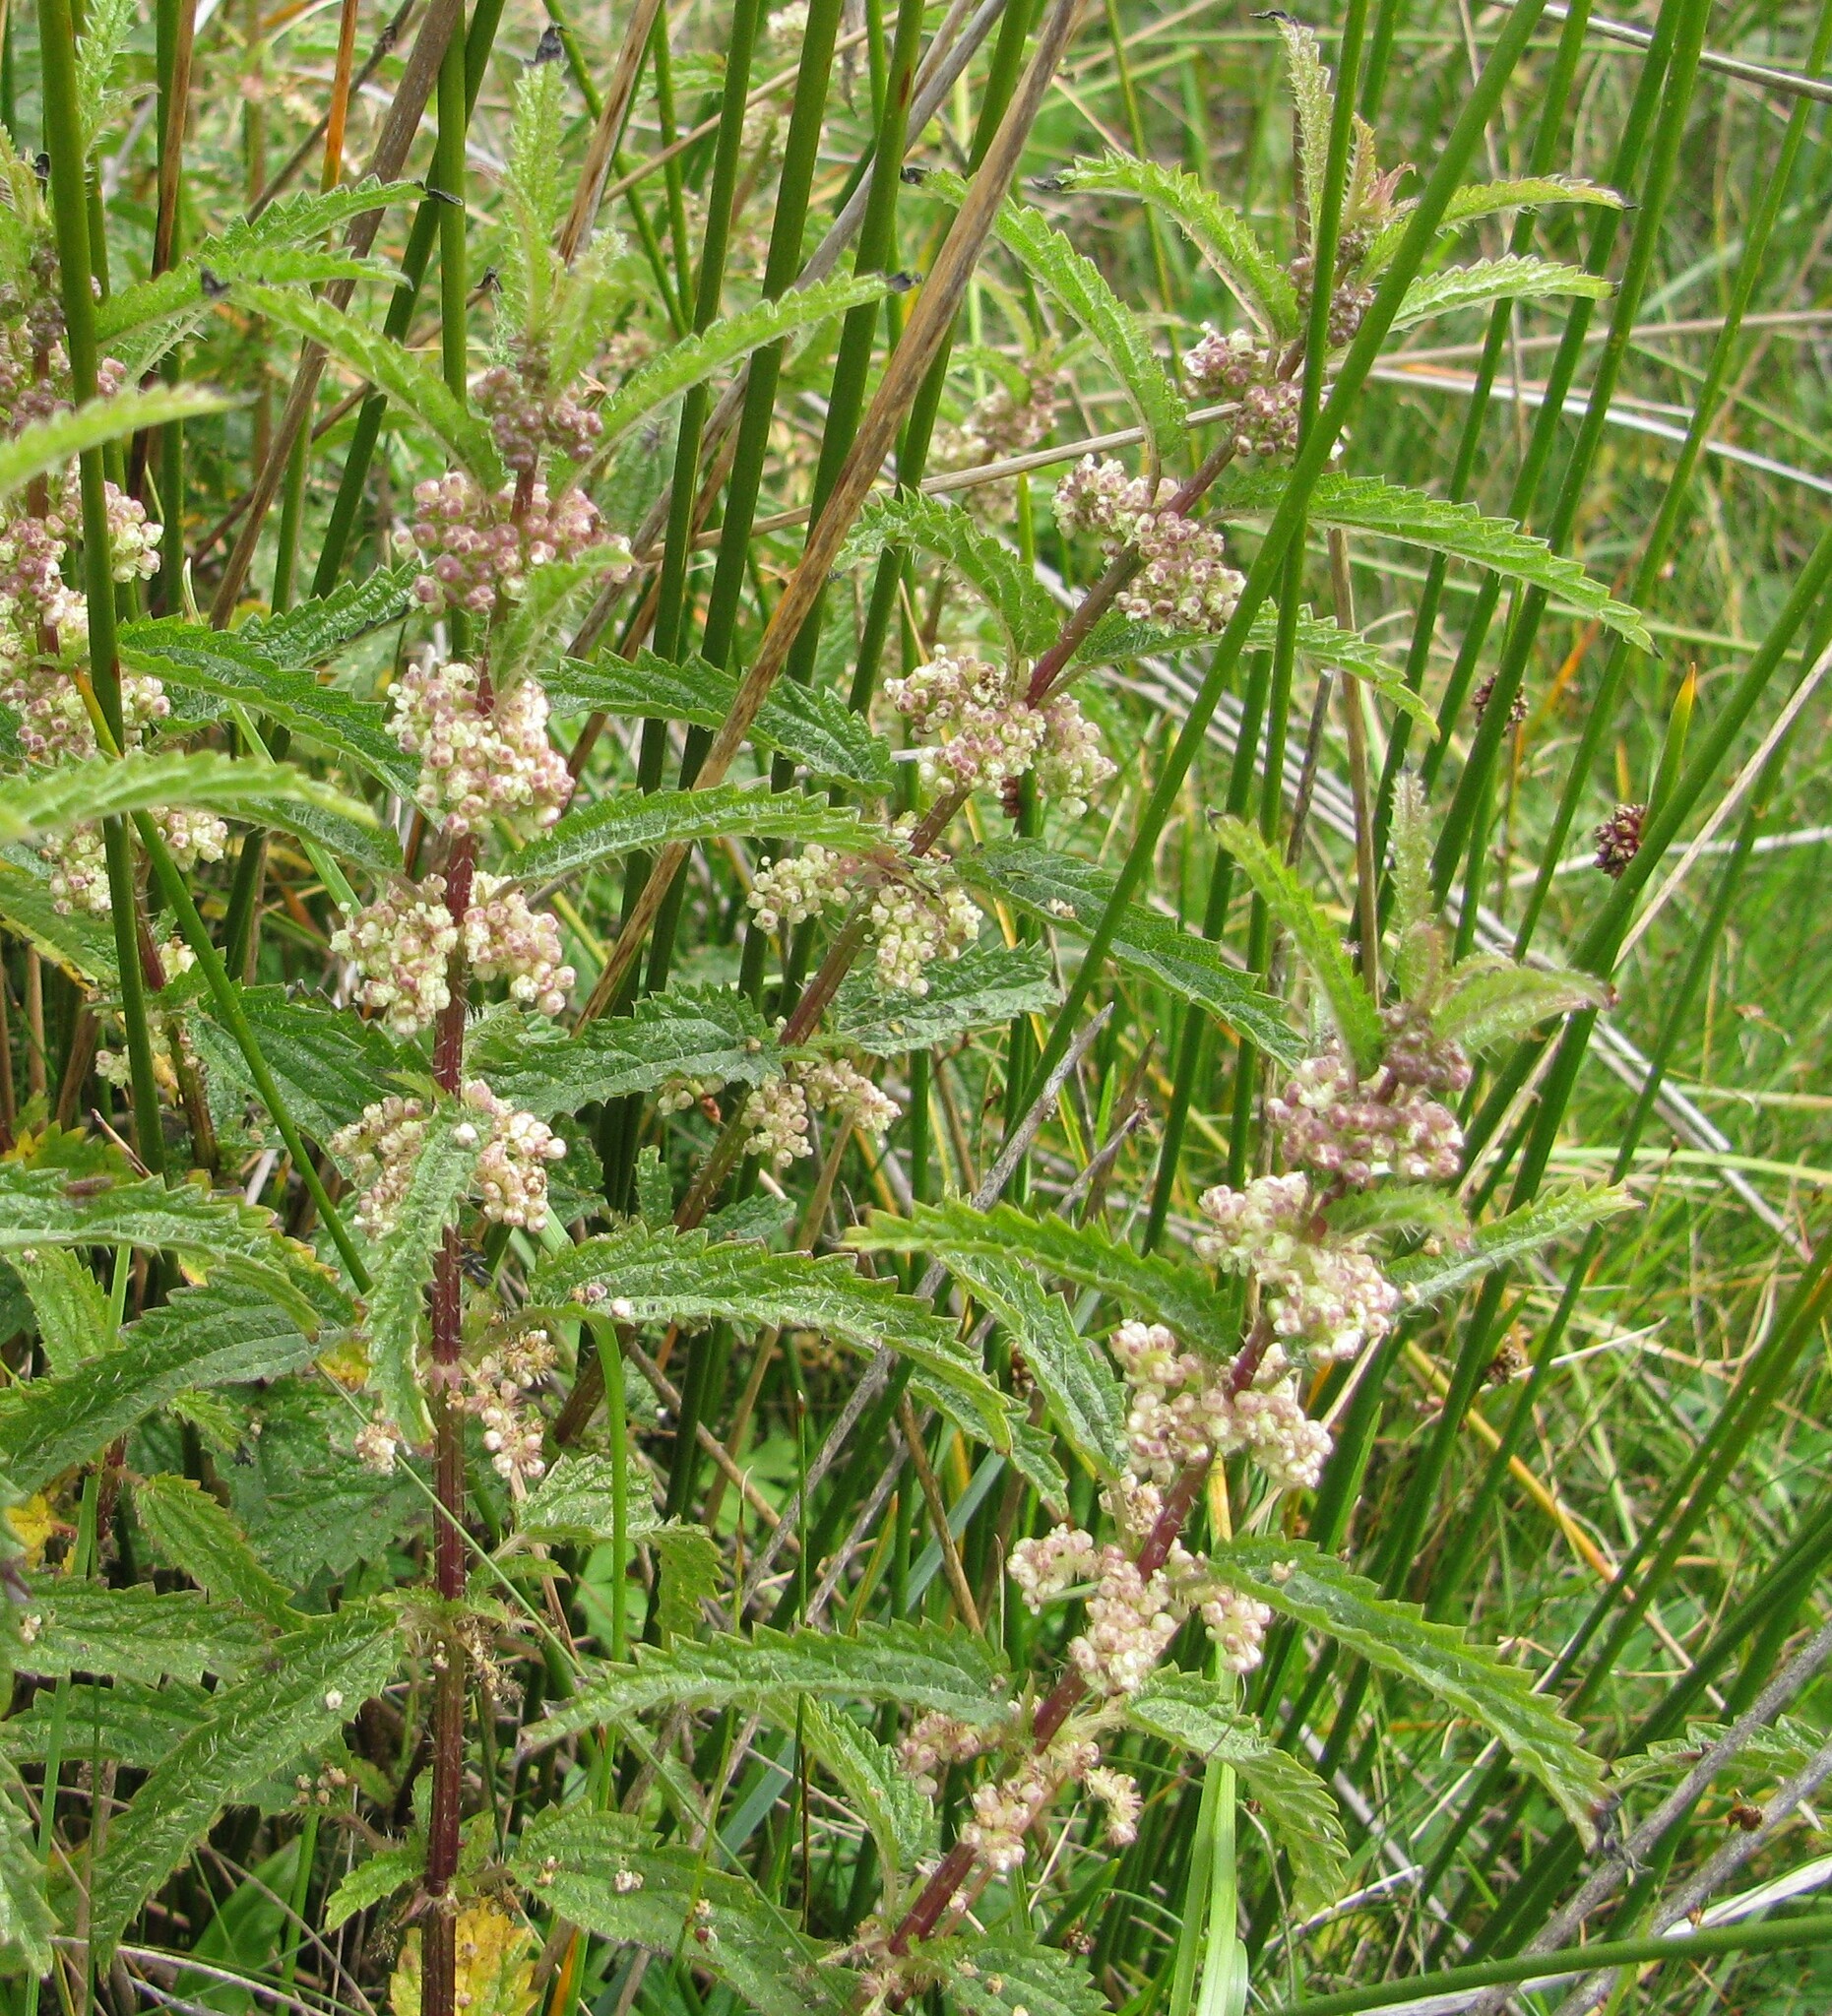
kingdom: Plantae
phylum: Tracheophyta
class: Magnoliopsida
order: Rosales
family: Urticaceae
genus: Urtica
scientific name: Urtica incisa
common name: Scrub nettle
